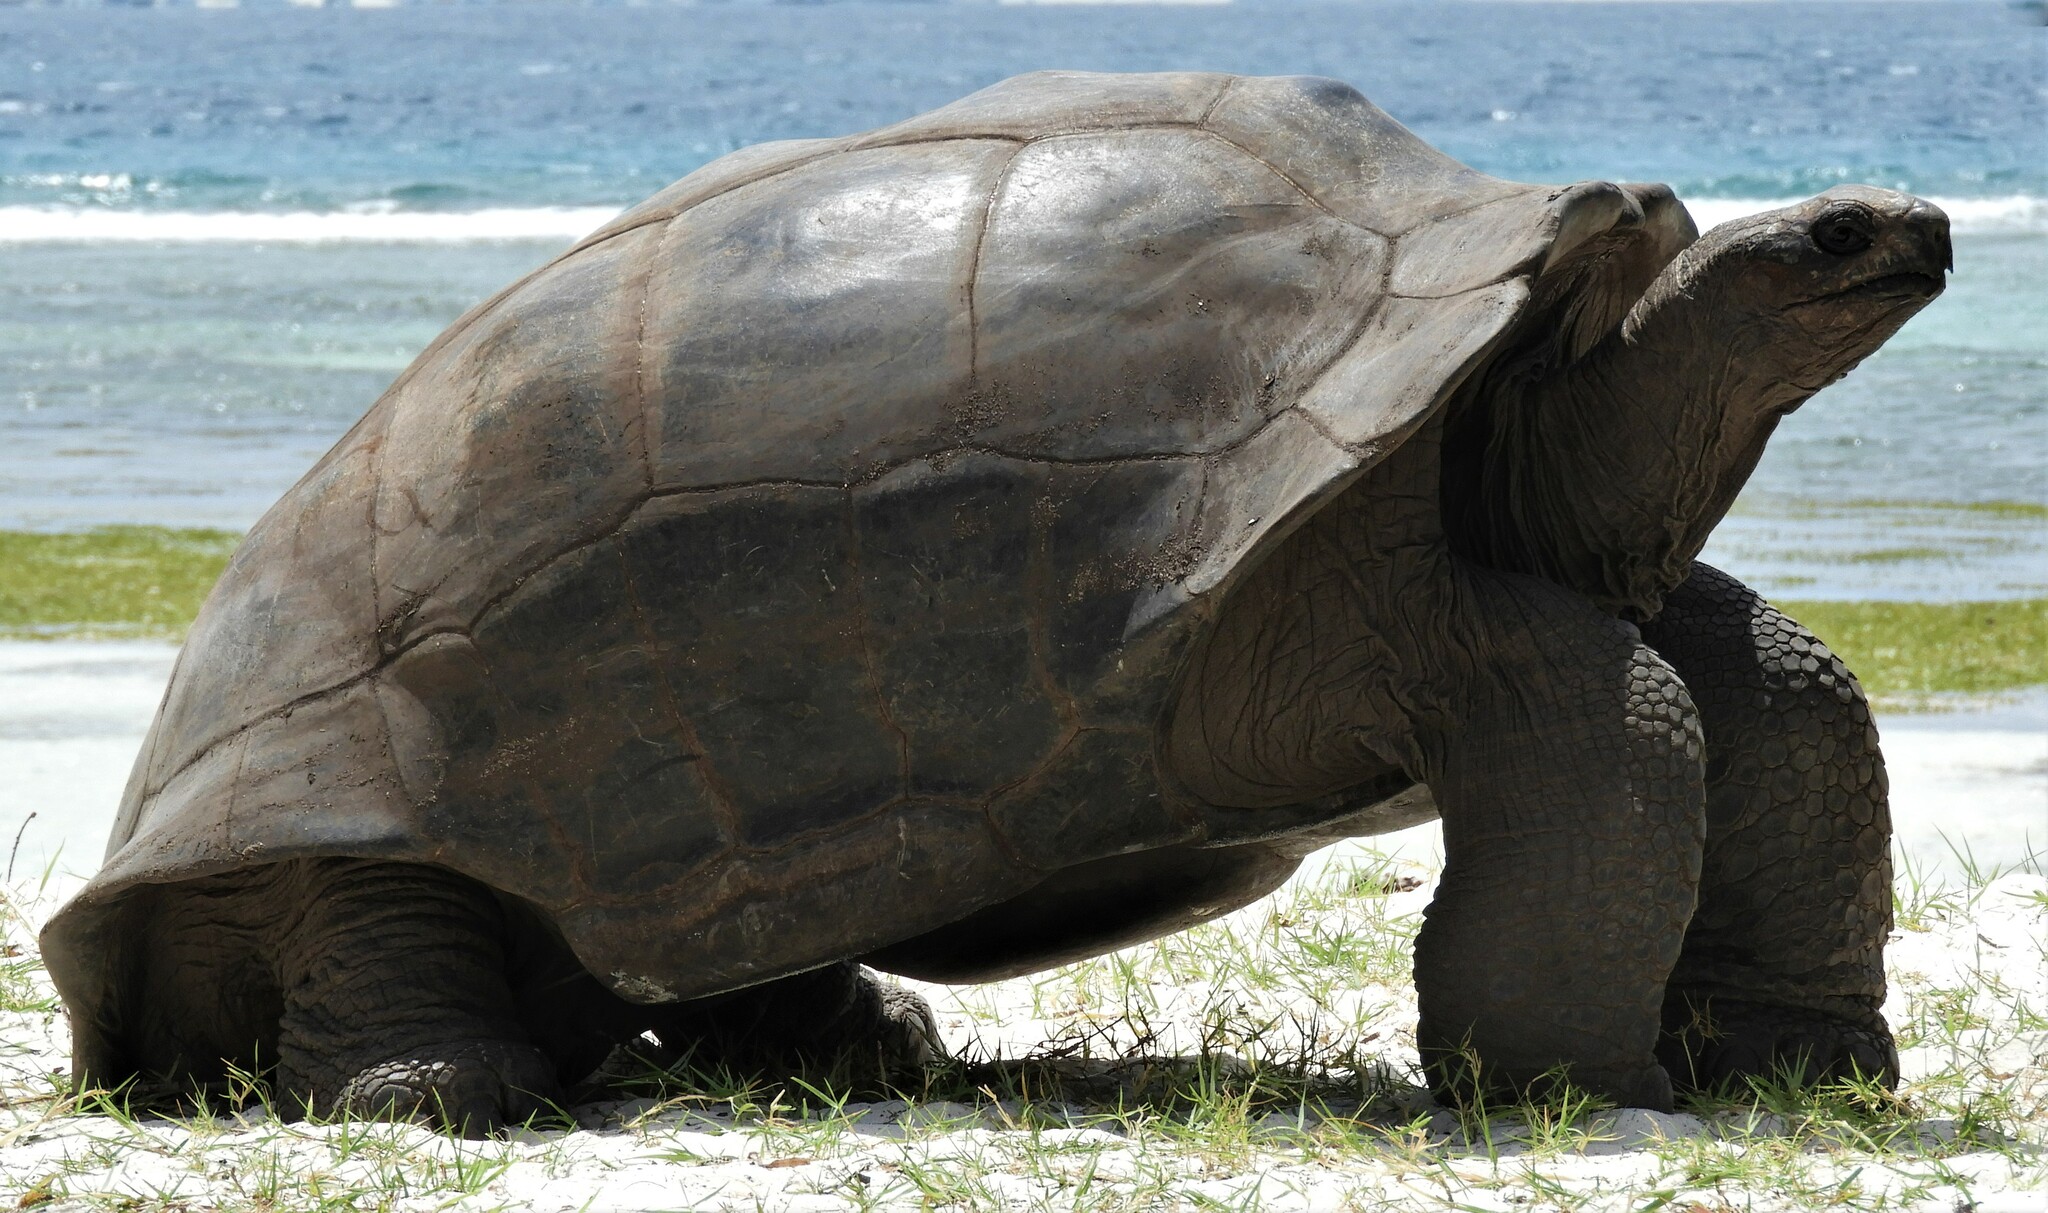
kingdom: Animalia
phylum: Chordata
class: Testudines
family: Testudinidae
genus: Aldabrachelys
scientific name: Aldabrachelys gigantea
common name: Aldabra giant tortoise
